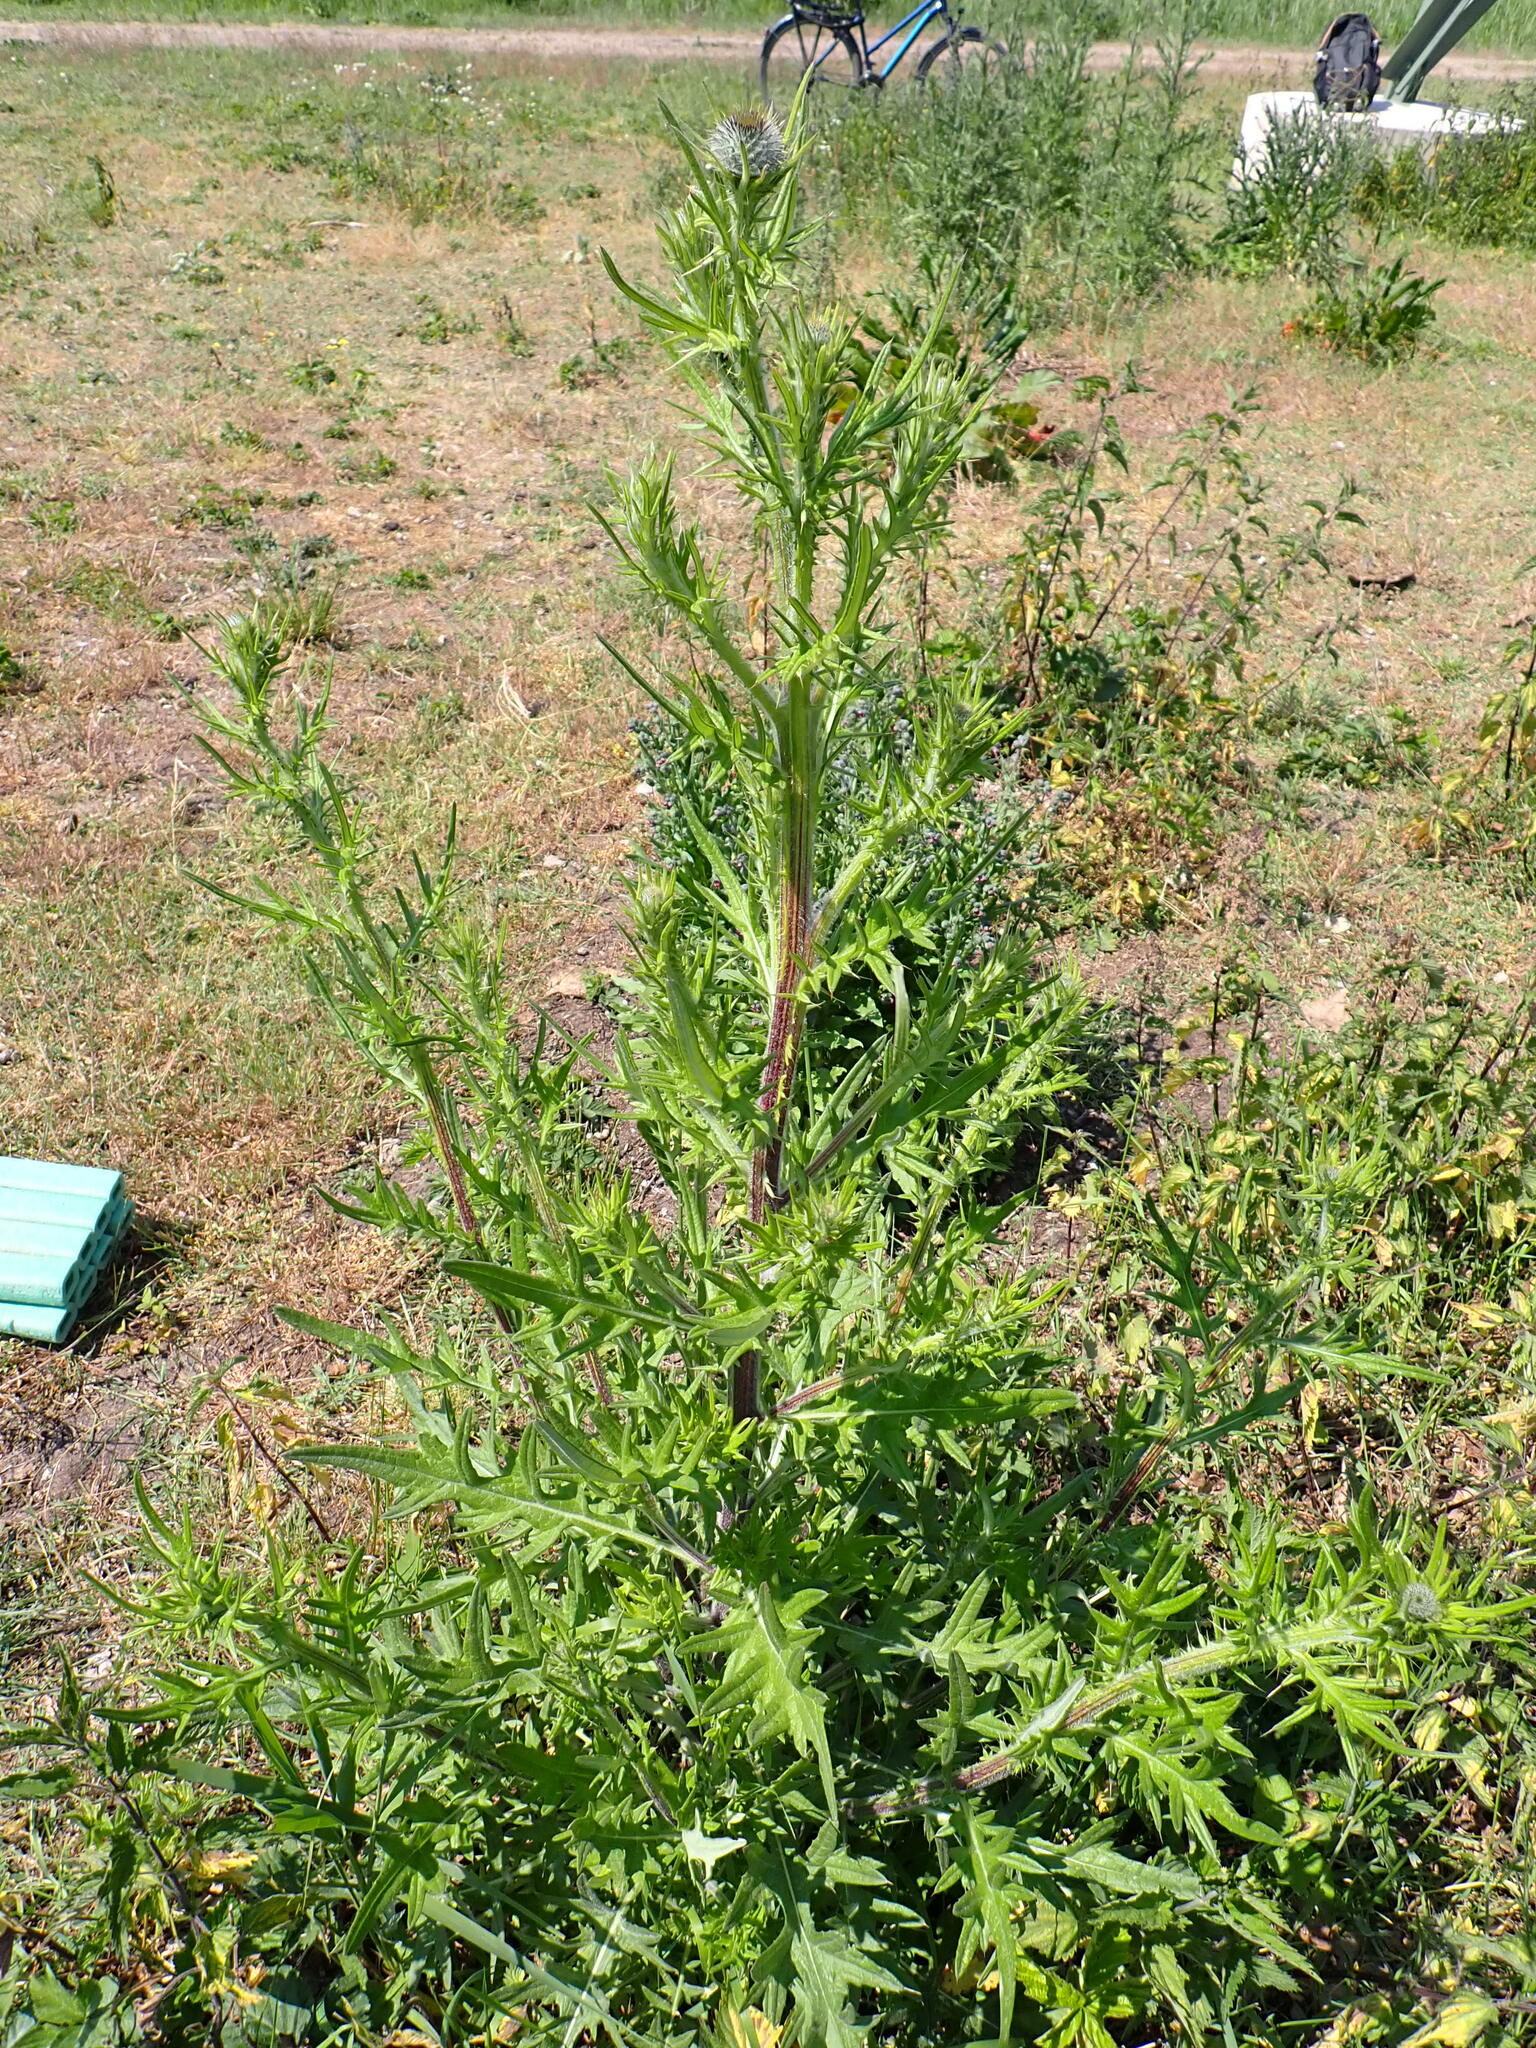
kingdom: Plantae
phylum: Tracheophyta
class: Magnoliopsida
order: Asterales
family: Asteraceae
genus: Cirsium
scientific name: Cirsium vulgare
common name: Bull thistle
